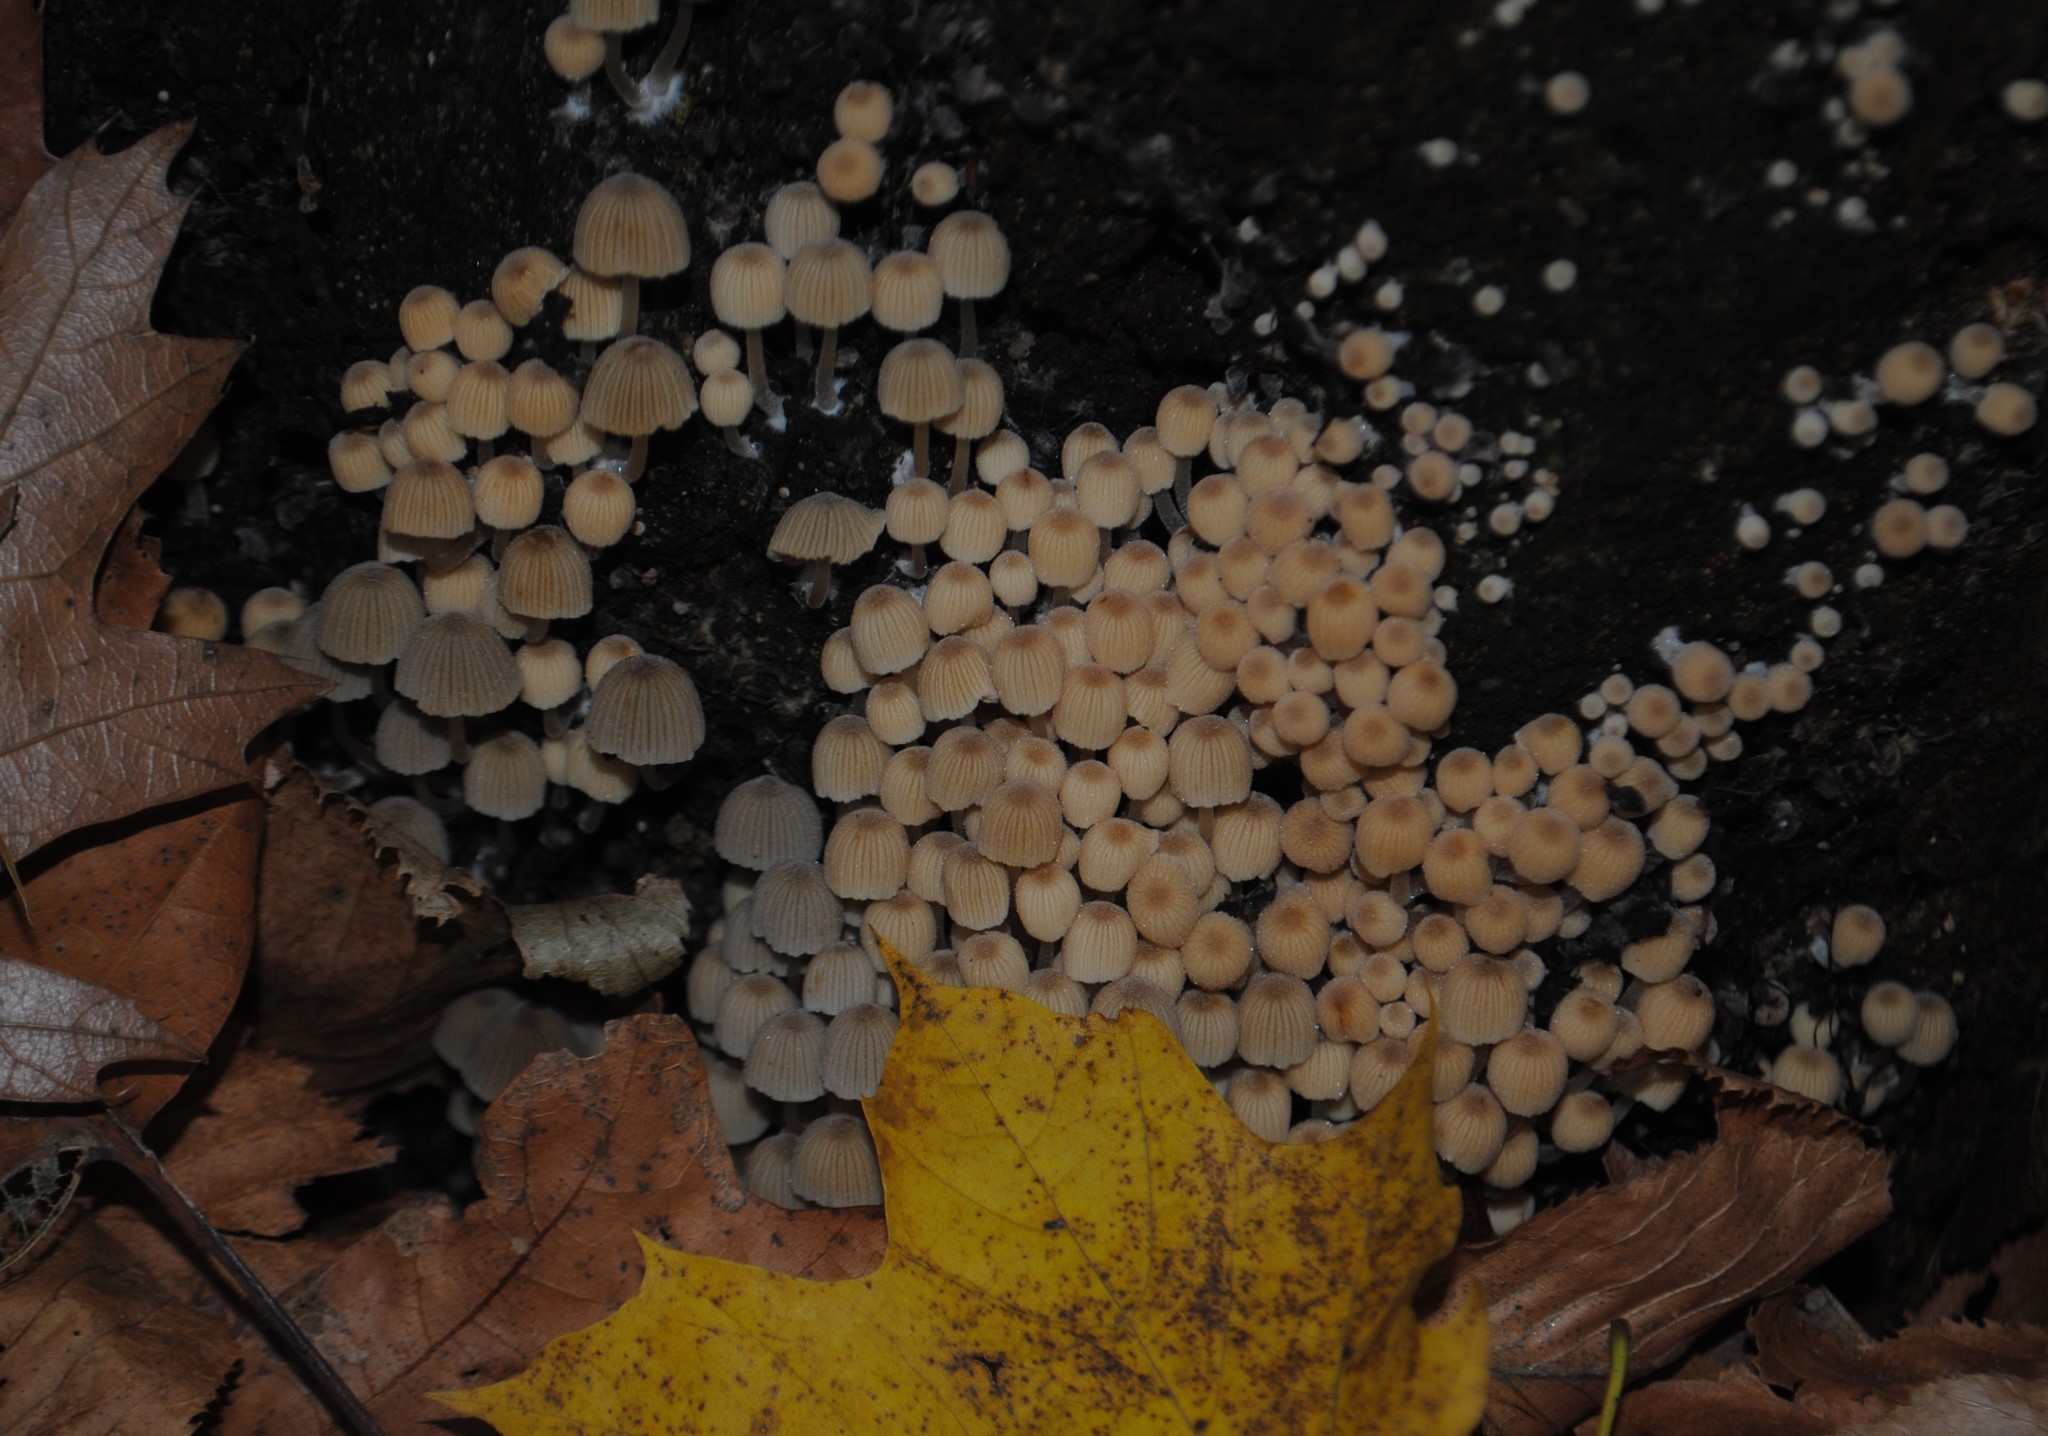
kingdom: Fungi
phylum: Basidiomycota
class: Agaricomycetes
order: Agaricales
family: Psathyrellaceae
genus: Coprinellus
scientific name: Coprinellus disseminatus
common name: Fairies' bonnets
